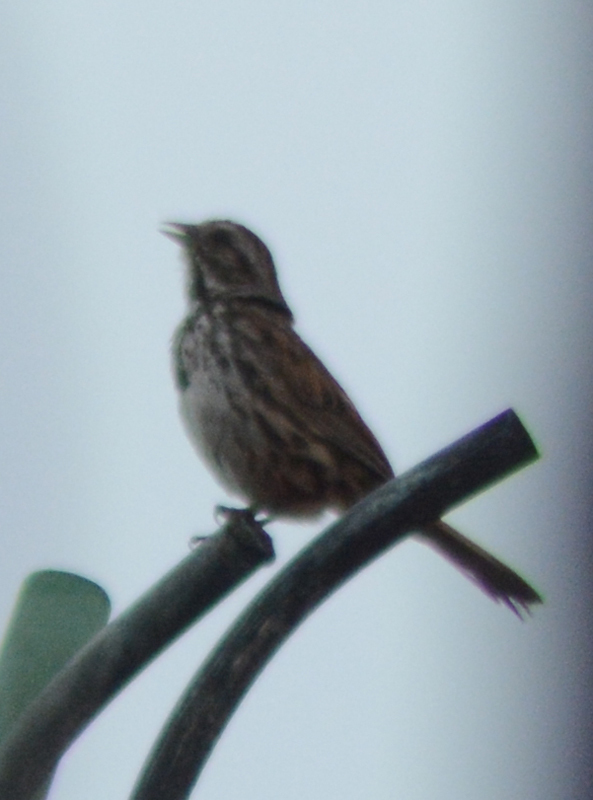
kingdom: Animalia
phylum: Chordata
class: Aves
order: Passeriformes
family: Passerellidae
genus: Melospiza
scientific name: Melospiza melodia
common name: Song sparrow
